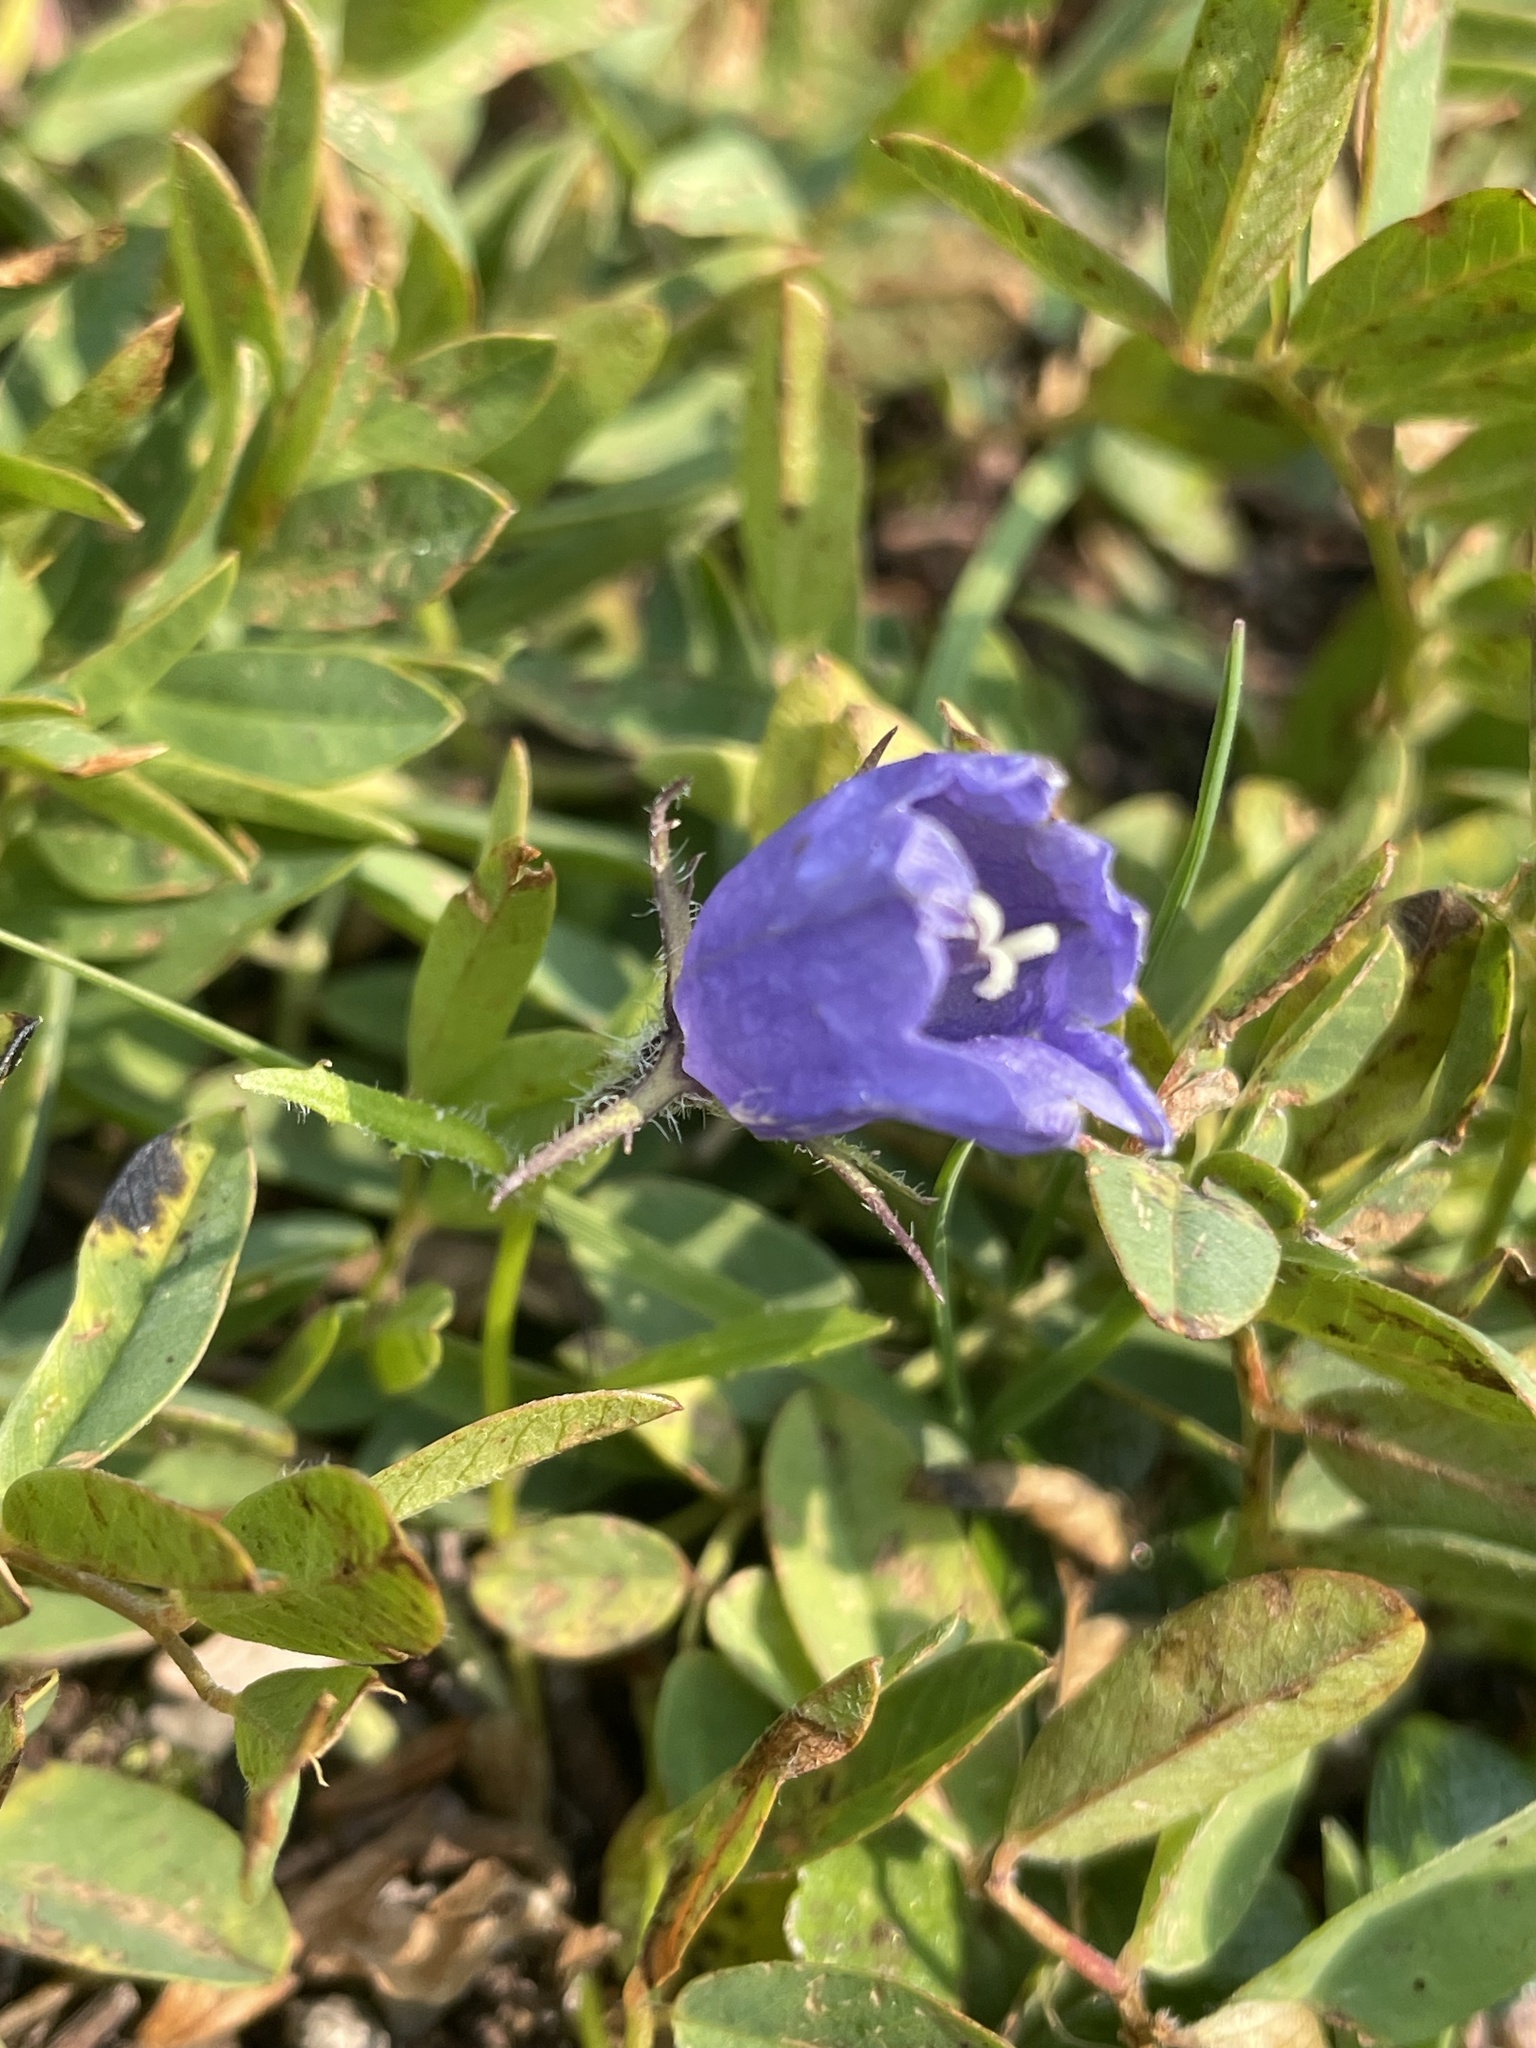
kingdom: Plantae
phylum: Tracheophyta
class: Magnoliopsida
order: Asterales
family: Campanulaceae
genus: Campanula
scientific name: Campanula lasiocarpa
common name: Mountain harebell
